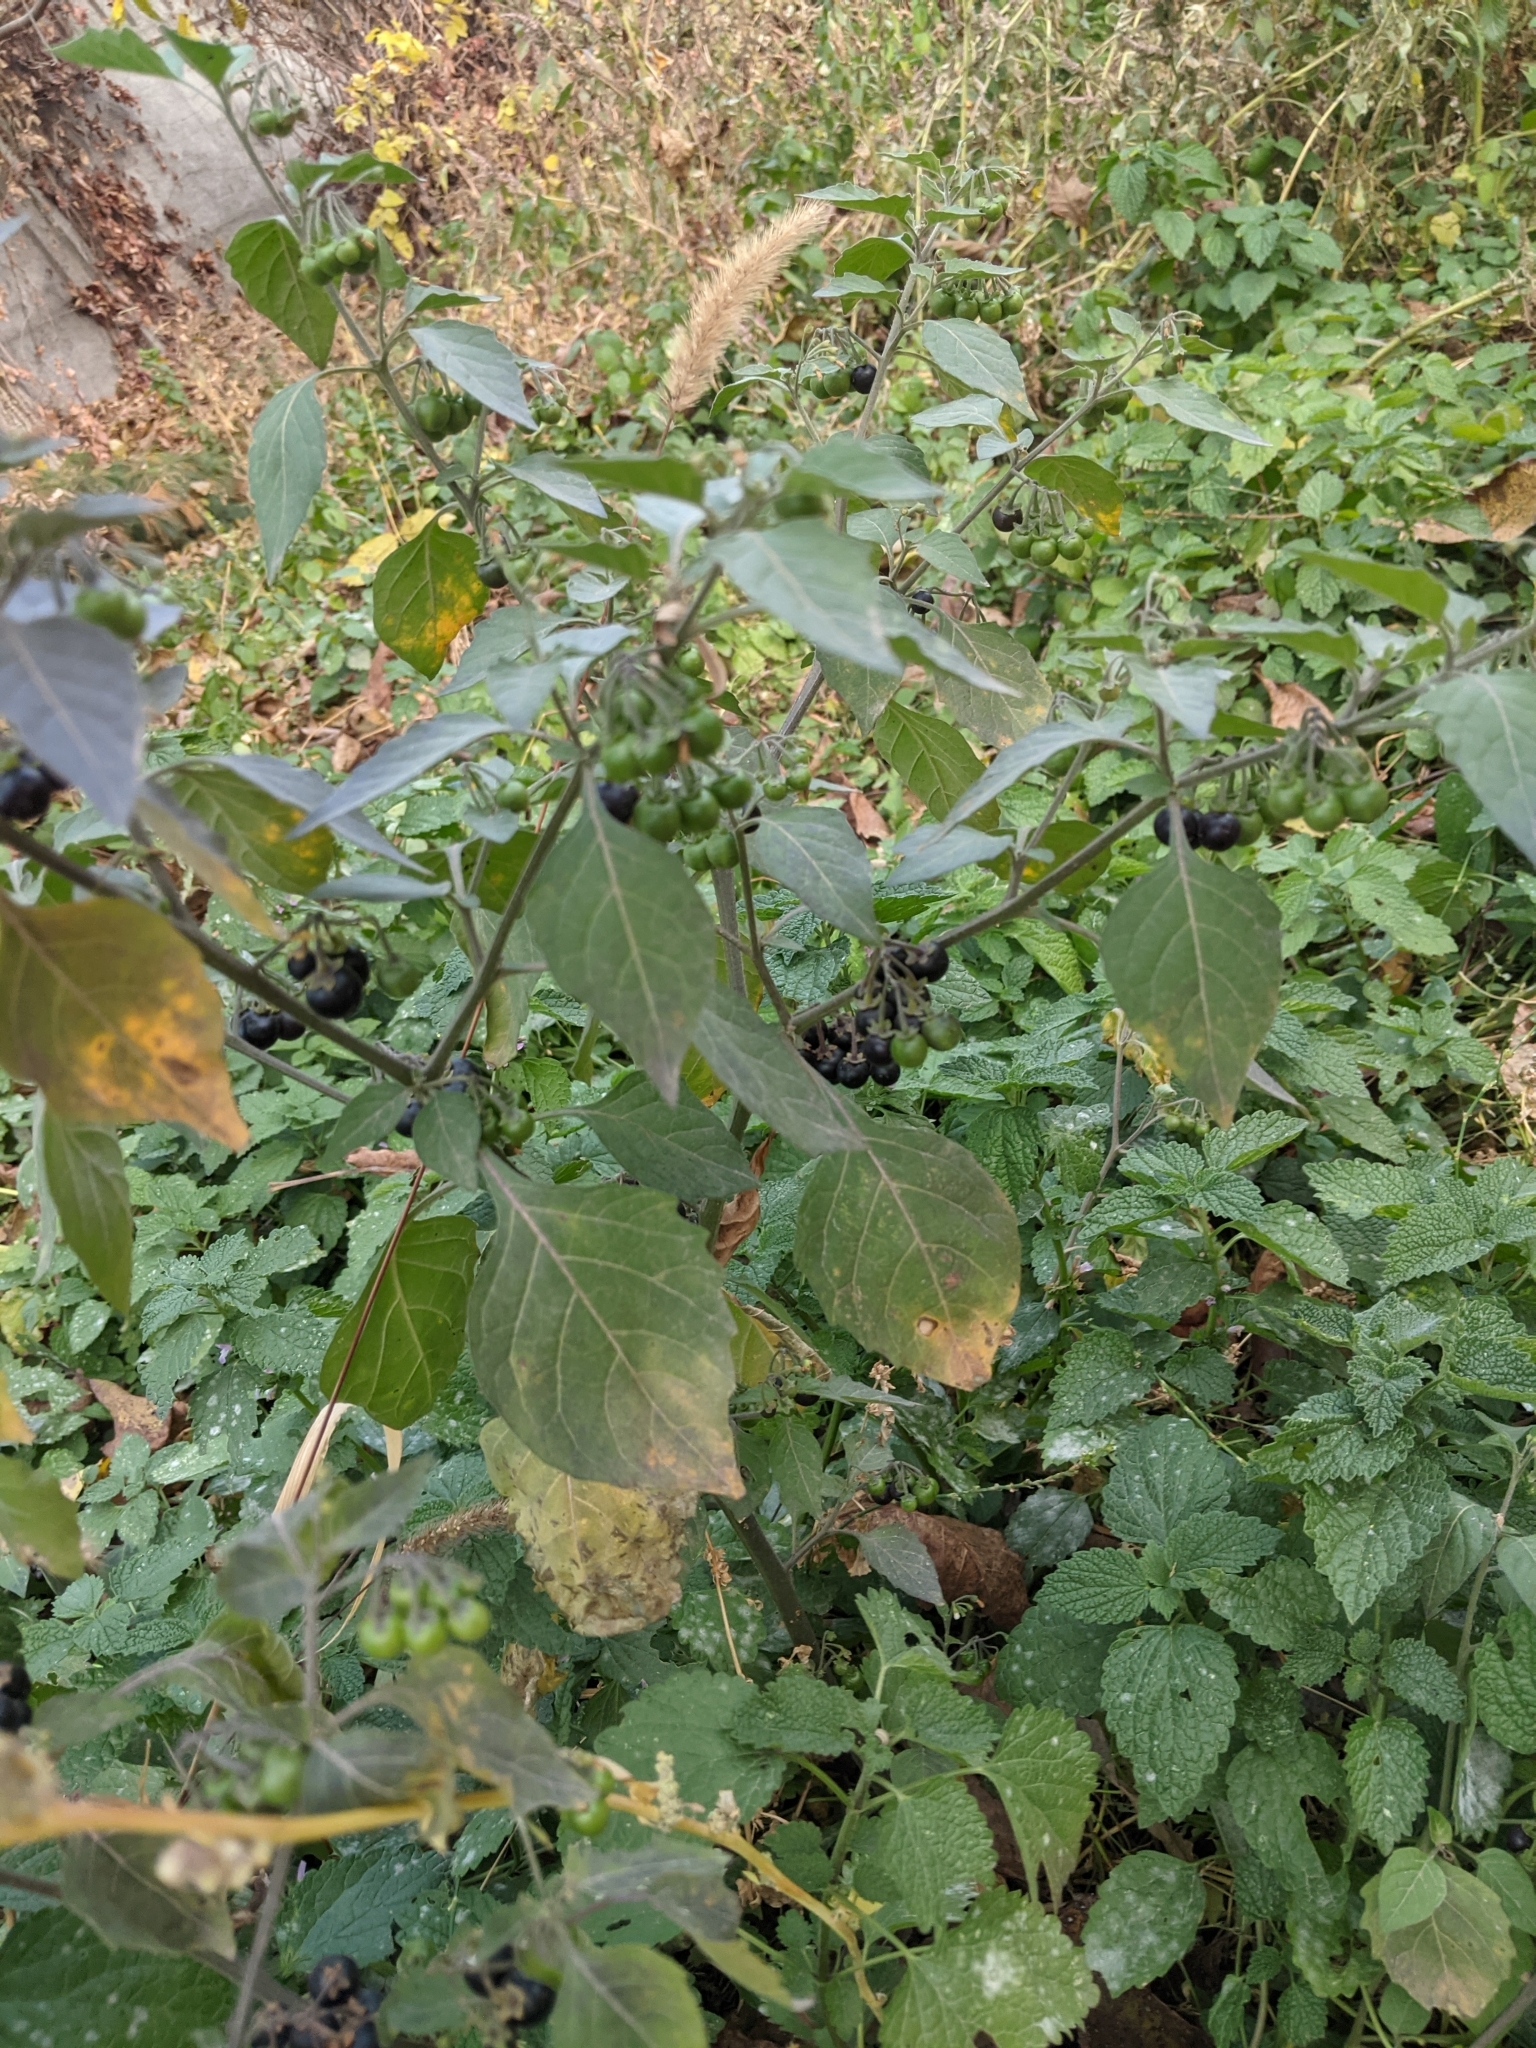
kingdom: Plantae
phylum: Tracheophyta
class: Magnoliopsida
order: Solanales
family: Solanaceae
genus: Solanum
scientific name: Solanum decipiens
